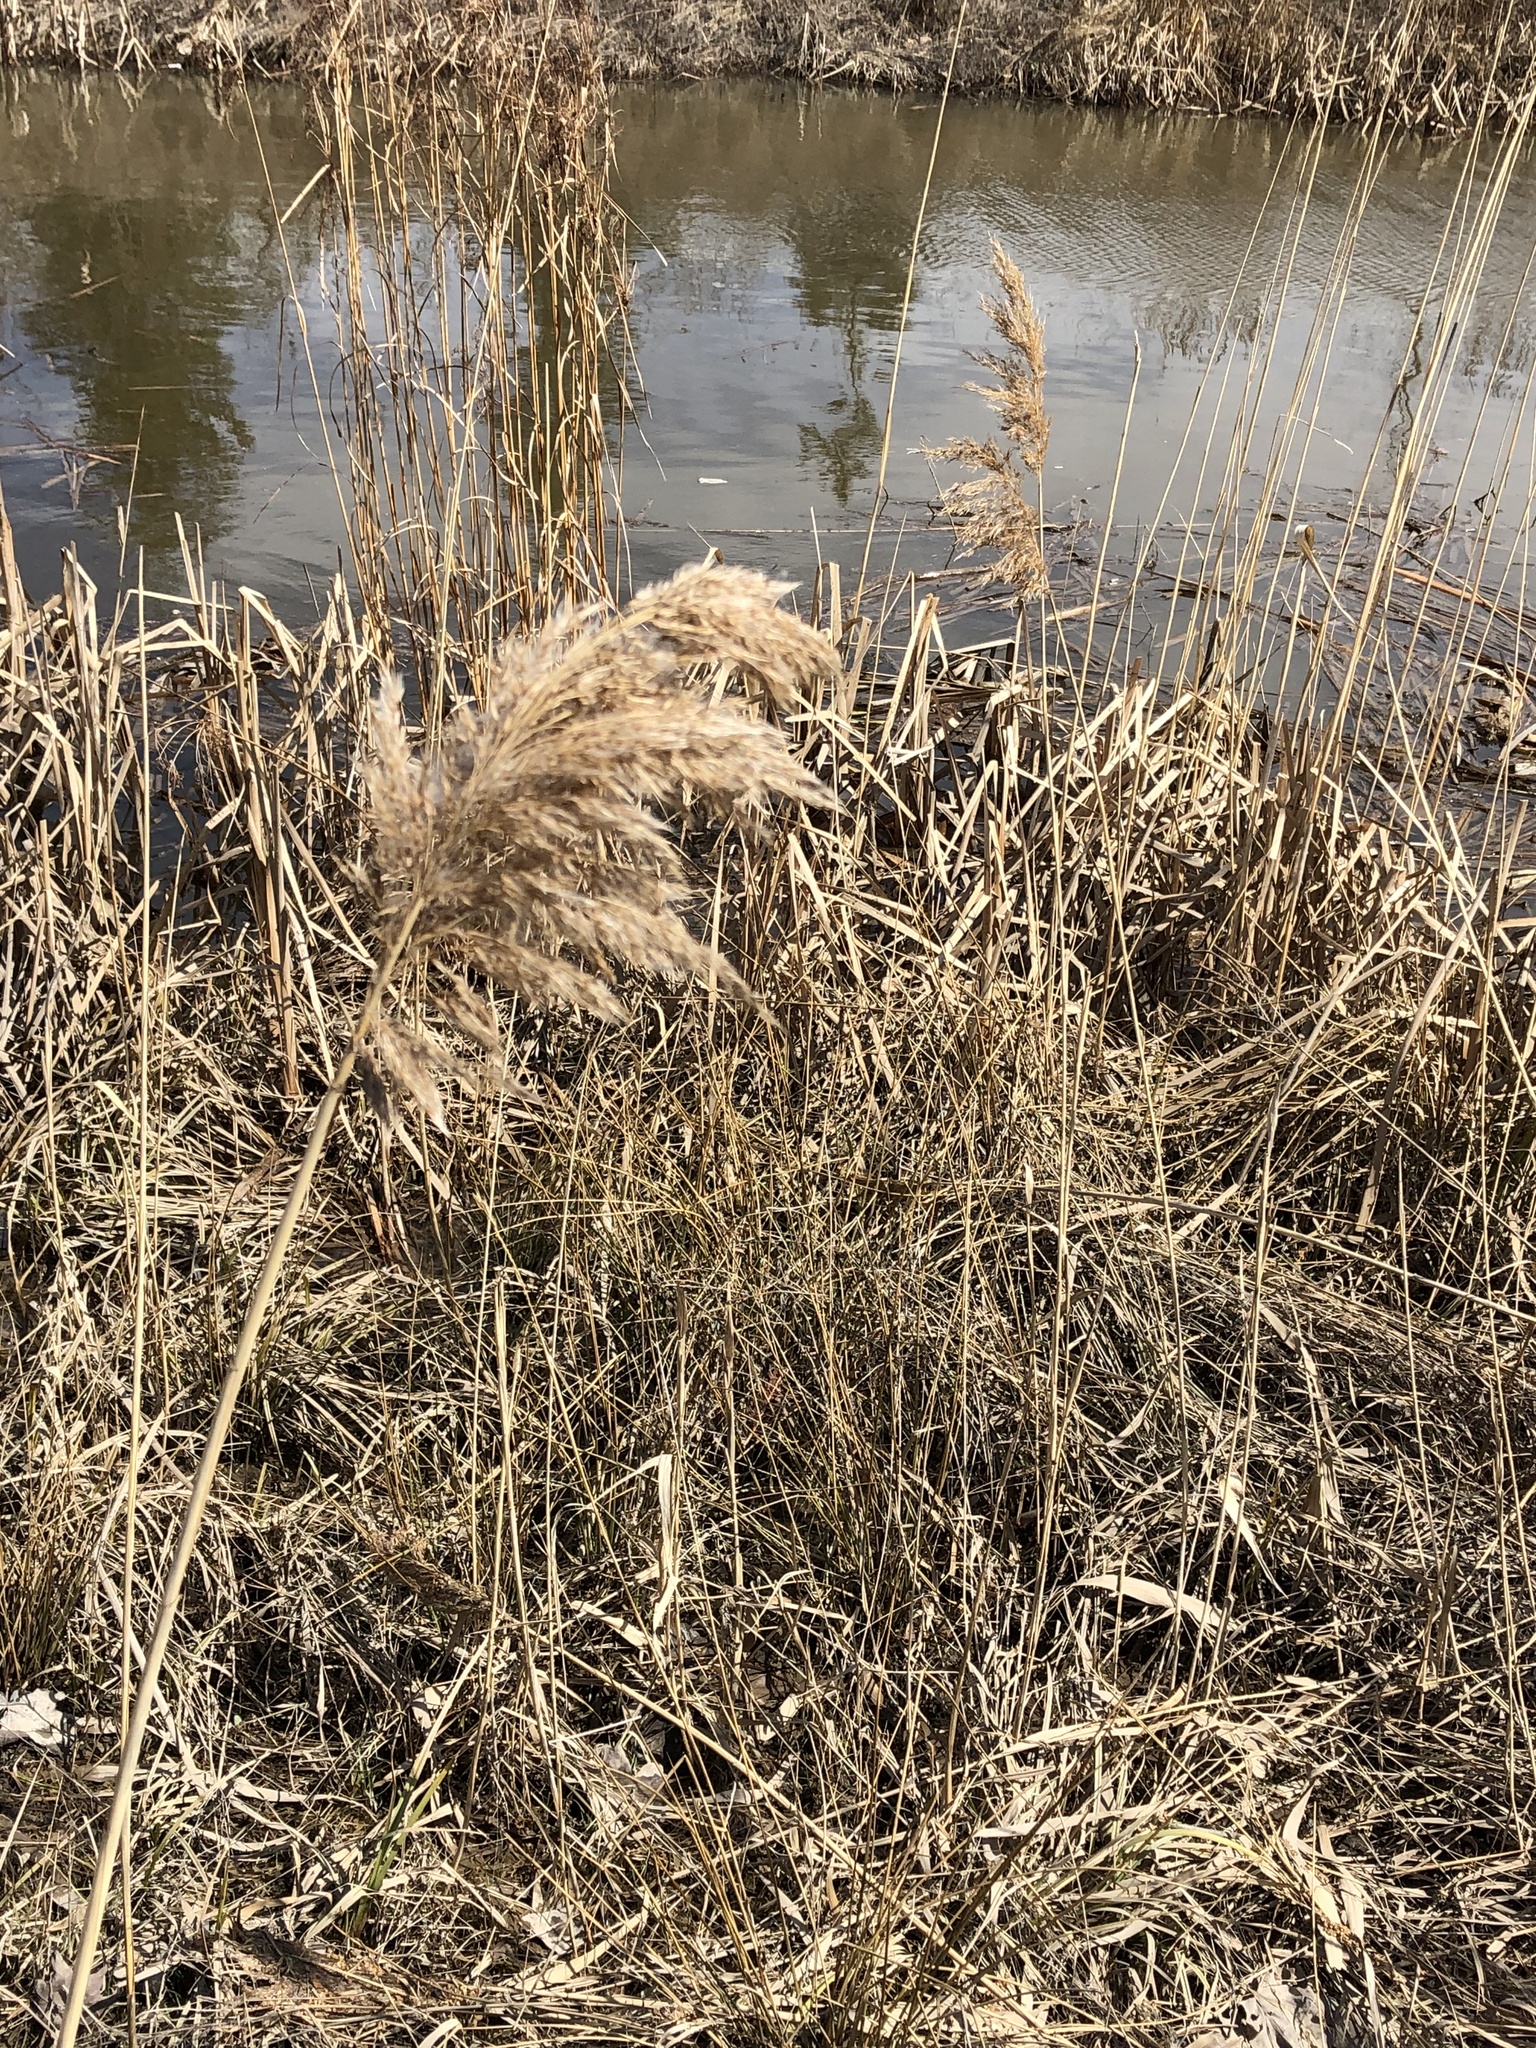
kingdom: Plantae
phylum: Tracheophyta
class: Liliopsida
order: Poales
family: Poaceae
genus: Phragmites
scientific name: Phragmites australis
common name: Common reed
